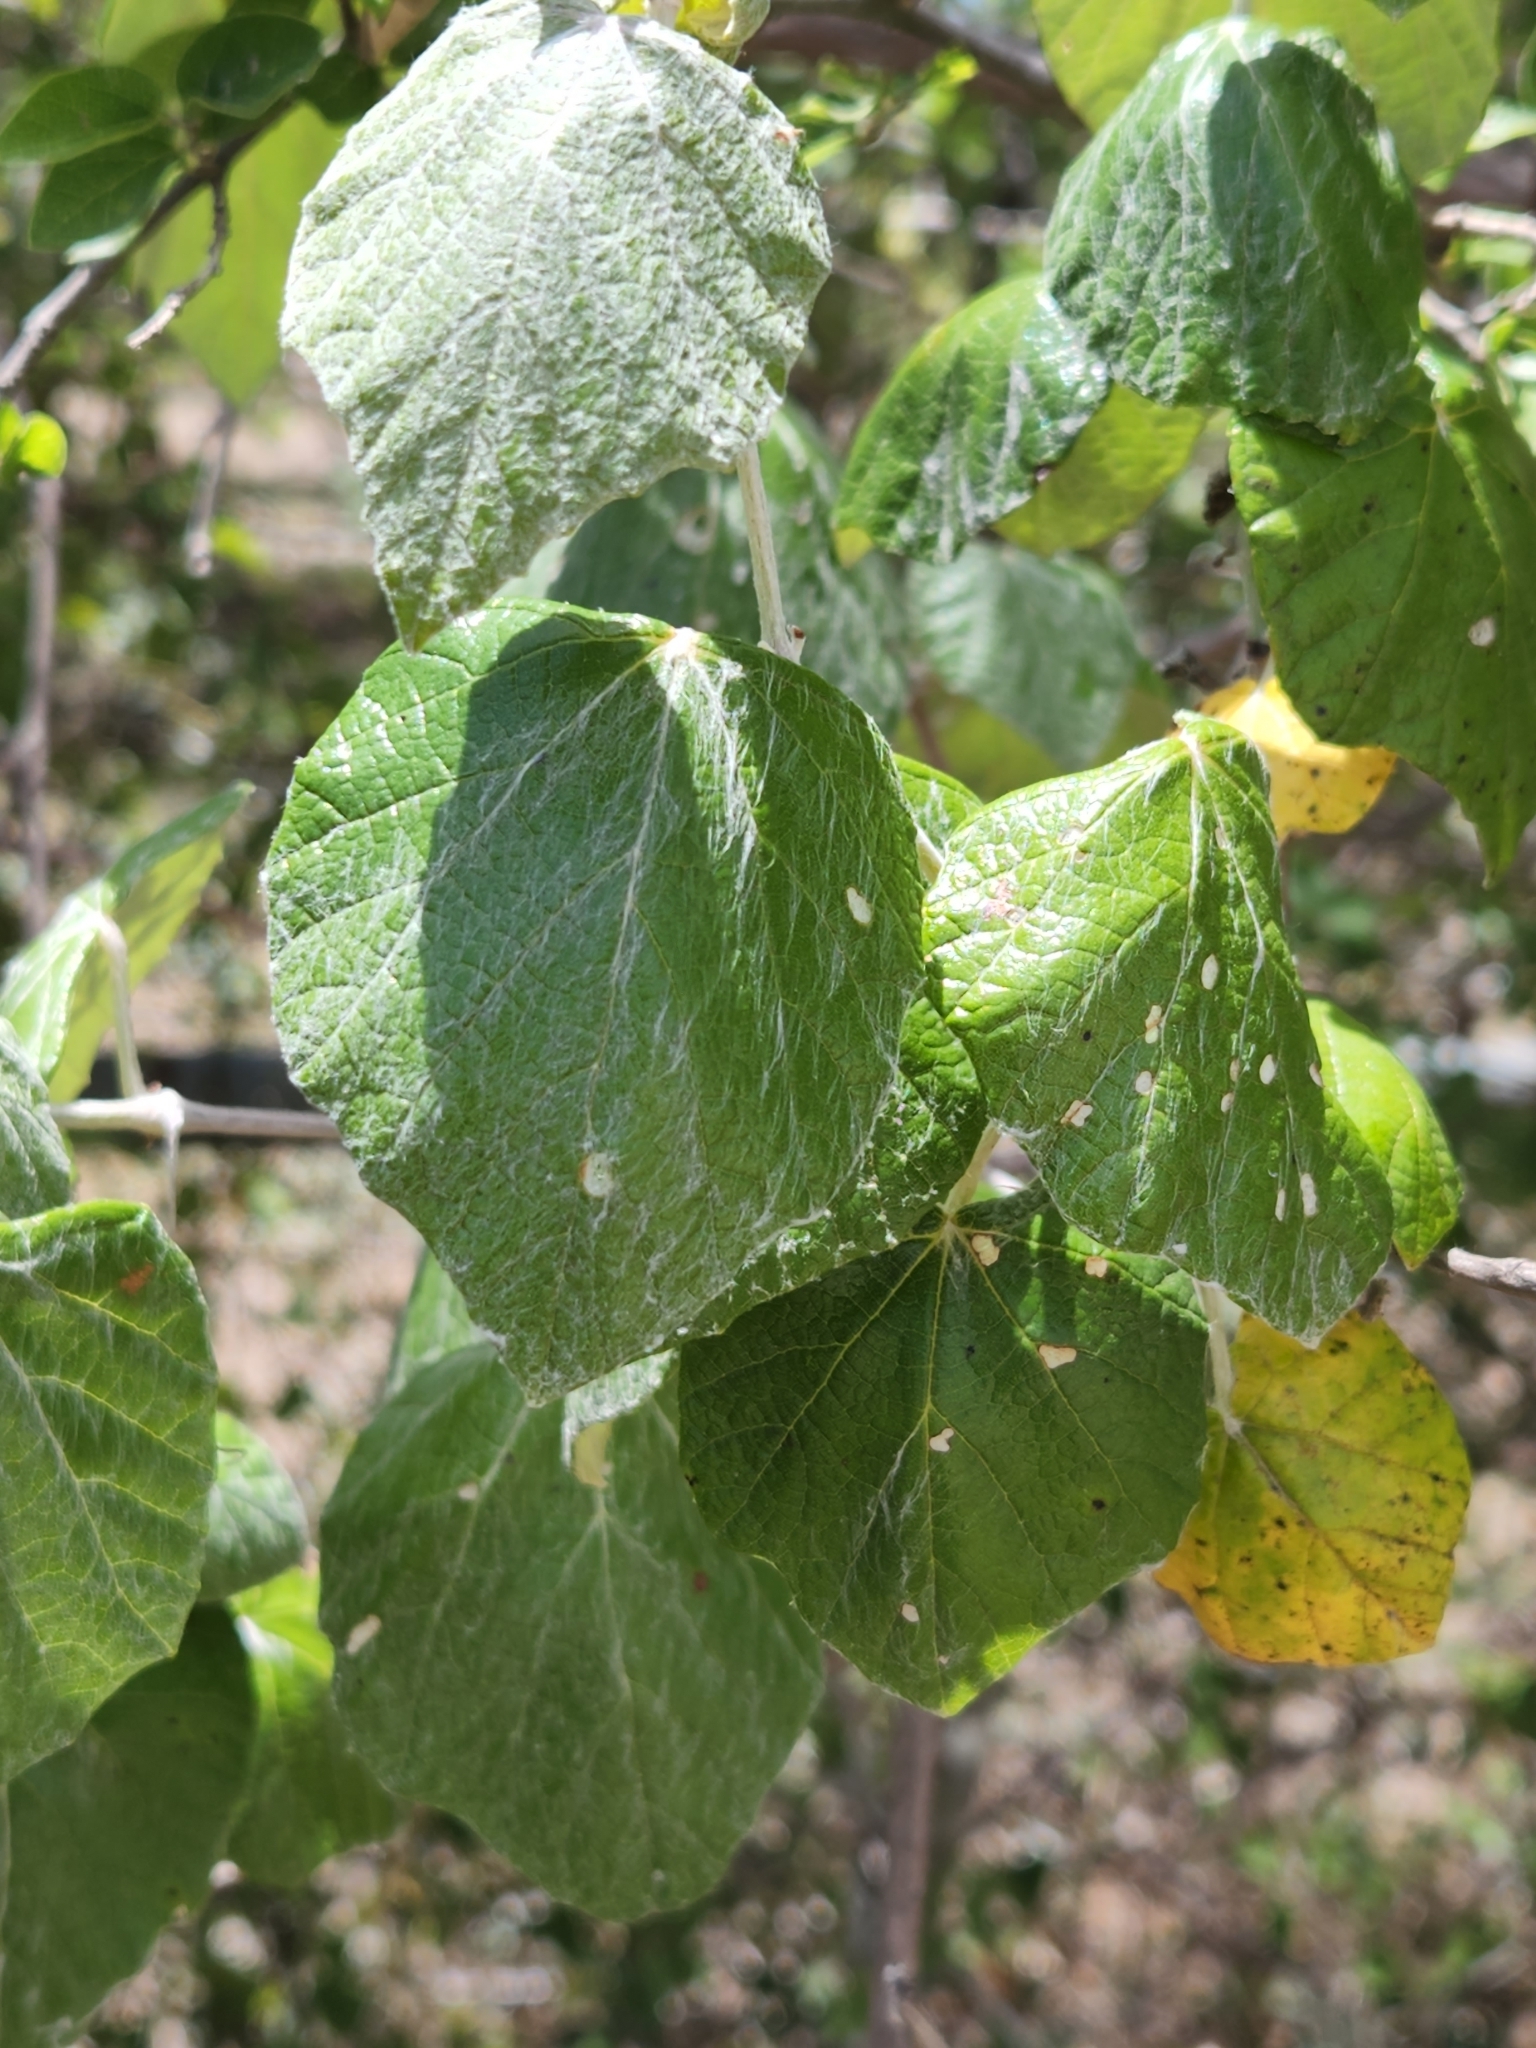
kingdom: Plantae
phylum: Tracheophyta
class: Magnoliopsida
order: Vitales
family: Vitaceae
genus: Vitis
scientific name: Vitis mustangensis
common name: Mustang grape
